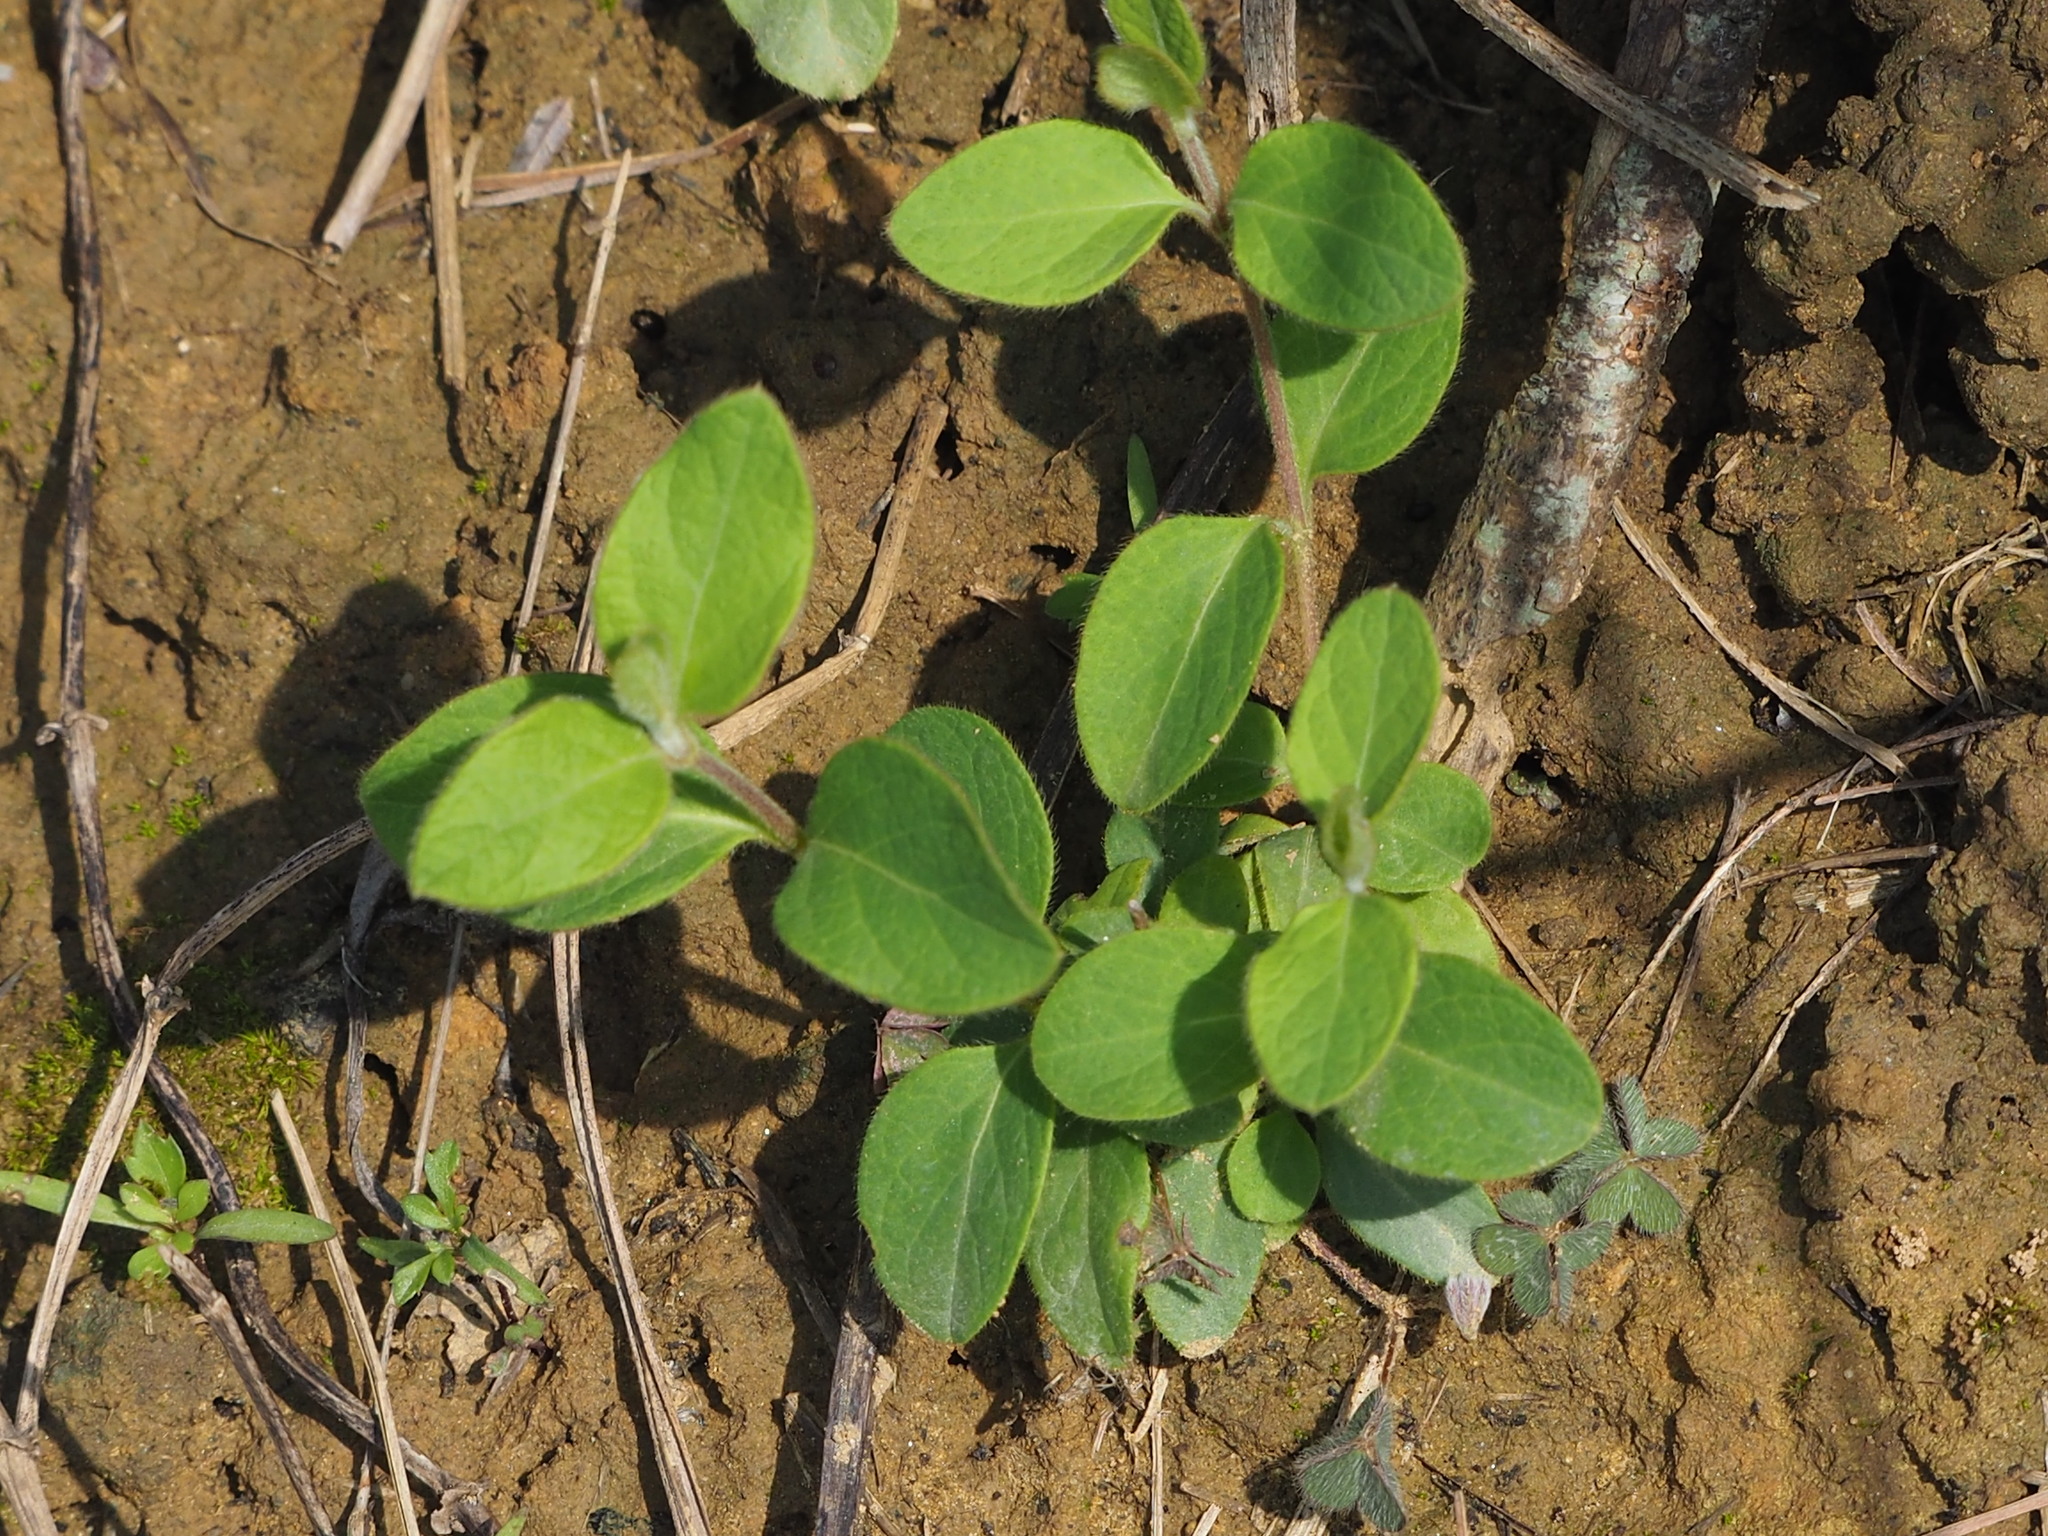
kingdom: Plantae
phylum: Tracheophyta
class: Magnoliopsida
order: Dipsacales
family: Caprifoliaceae
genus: Lonicera
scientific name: Lonicera japonica
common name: Japanese honeysuckle
